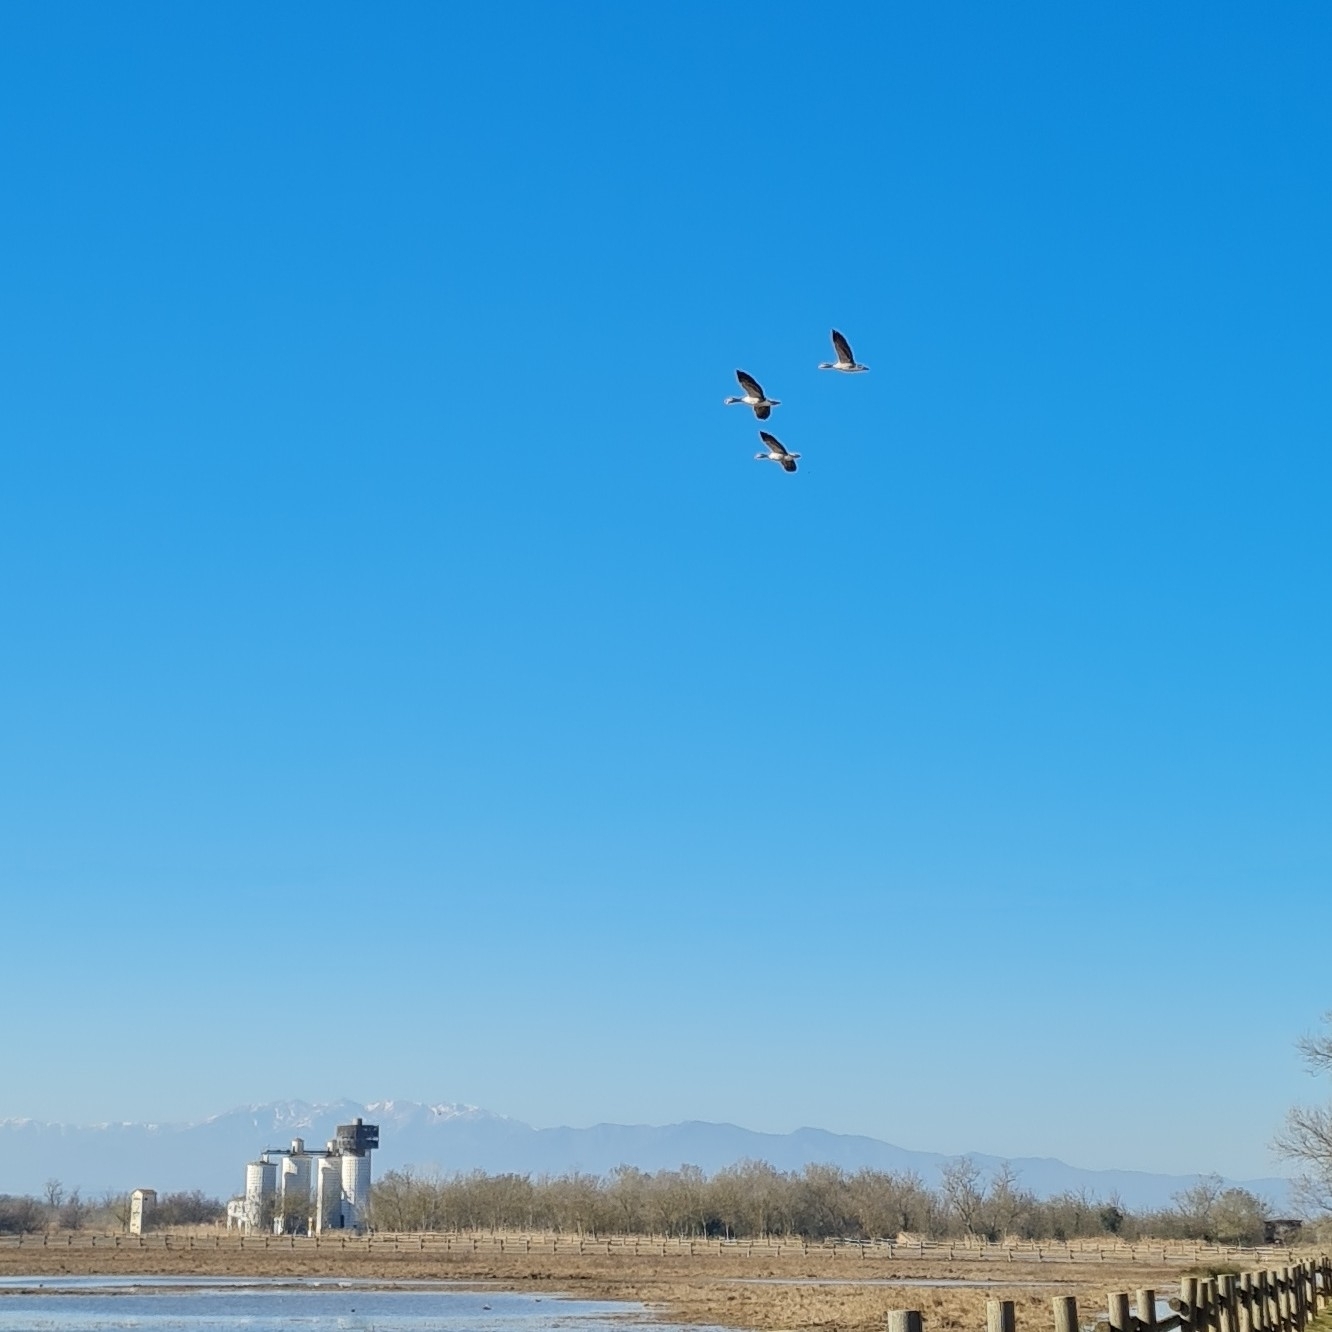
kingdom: Animalia
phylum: Chordata
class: Aves
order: Anseriformes
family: Anatidae
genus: Anser
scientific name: Anser anser
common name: Greylag goose
